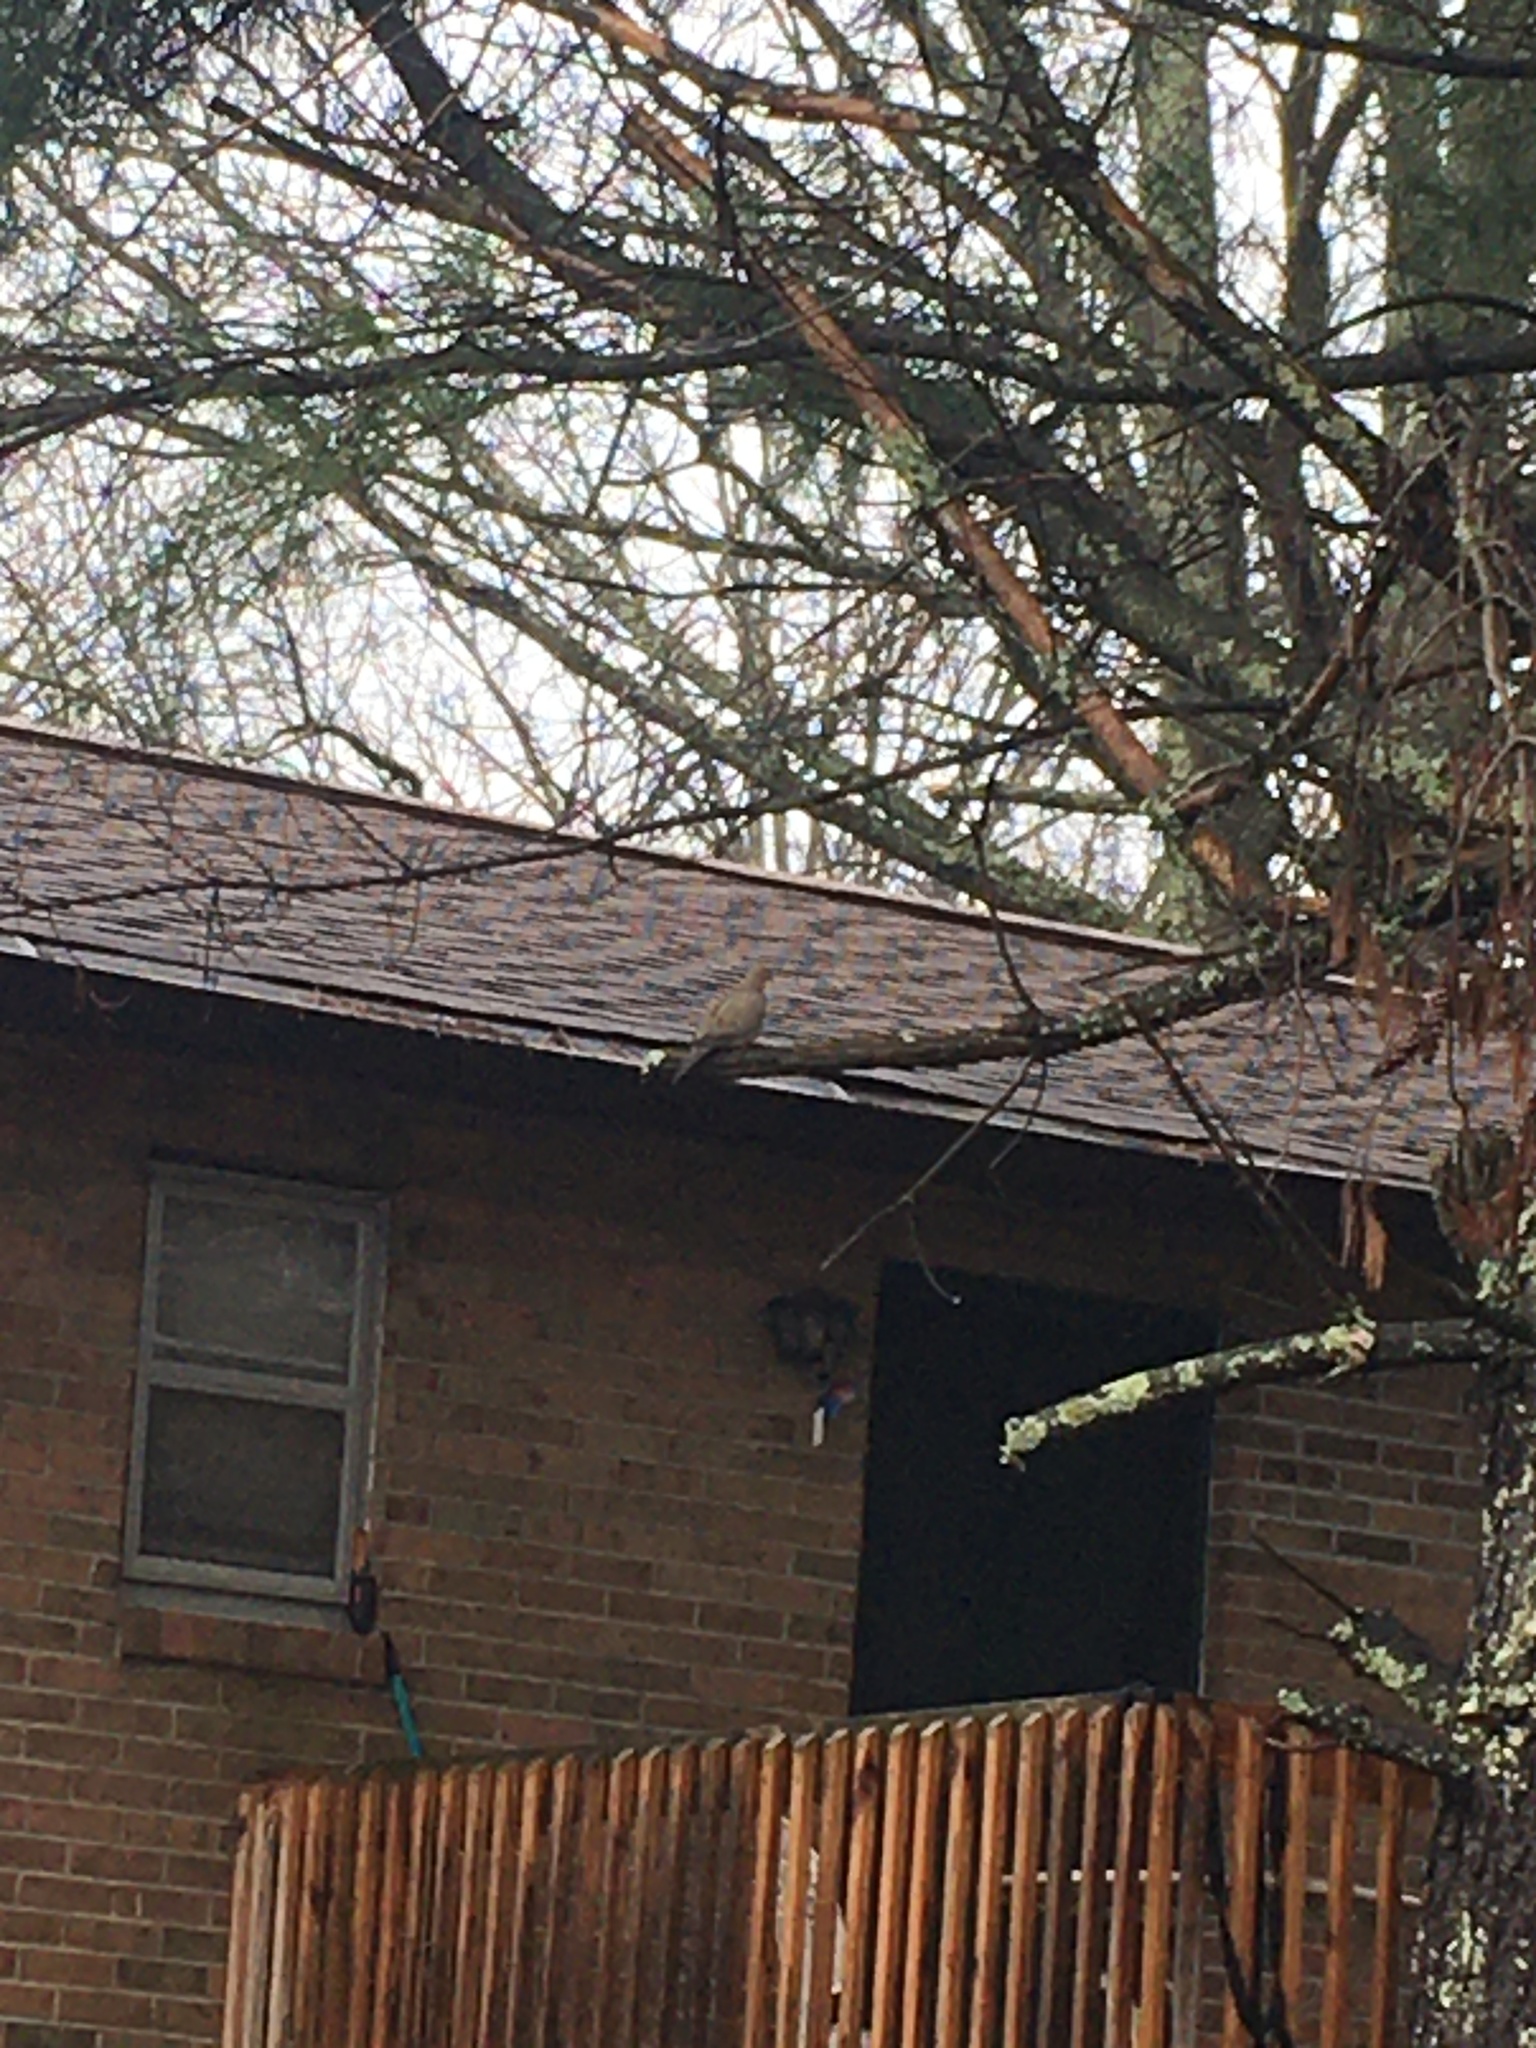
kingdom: Animalia
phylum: Chordata
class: Aves
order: Columbiformes
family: Columbidae
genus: Zenaida
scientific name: Zenaida macroura
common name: Mourning dove
